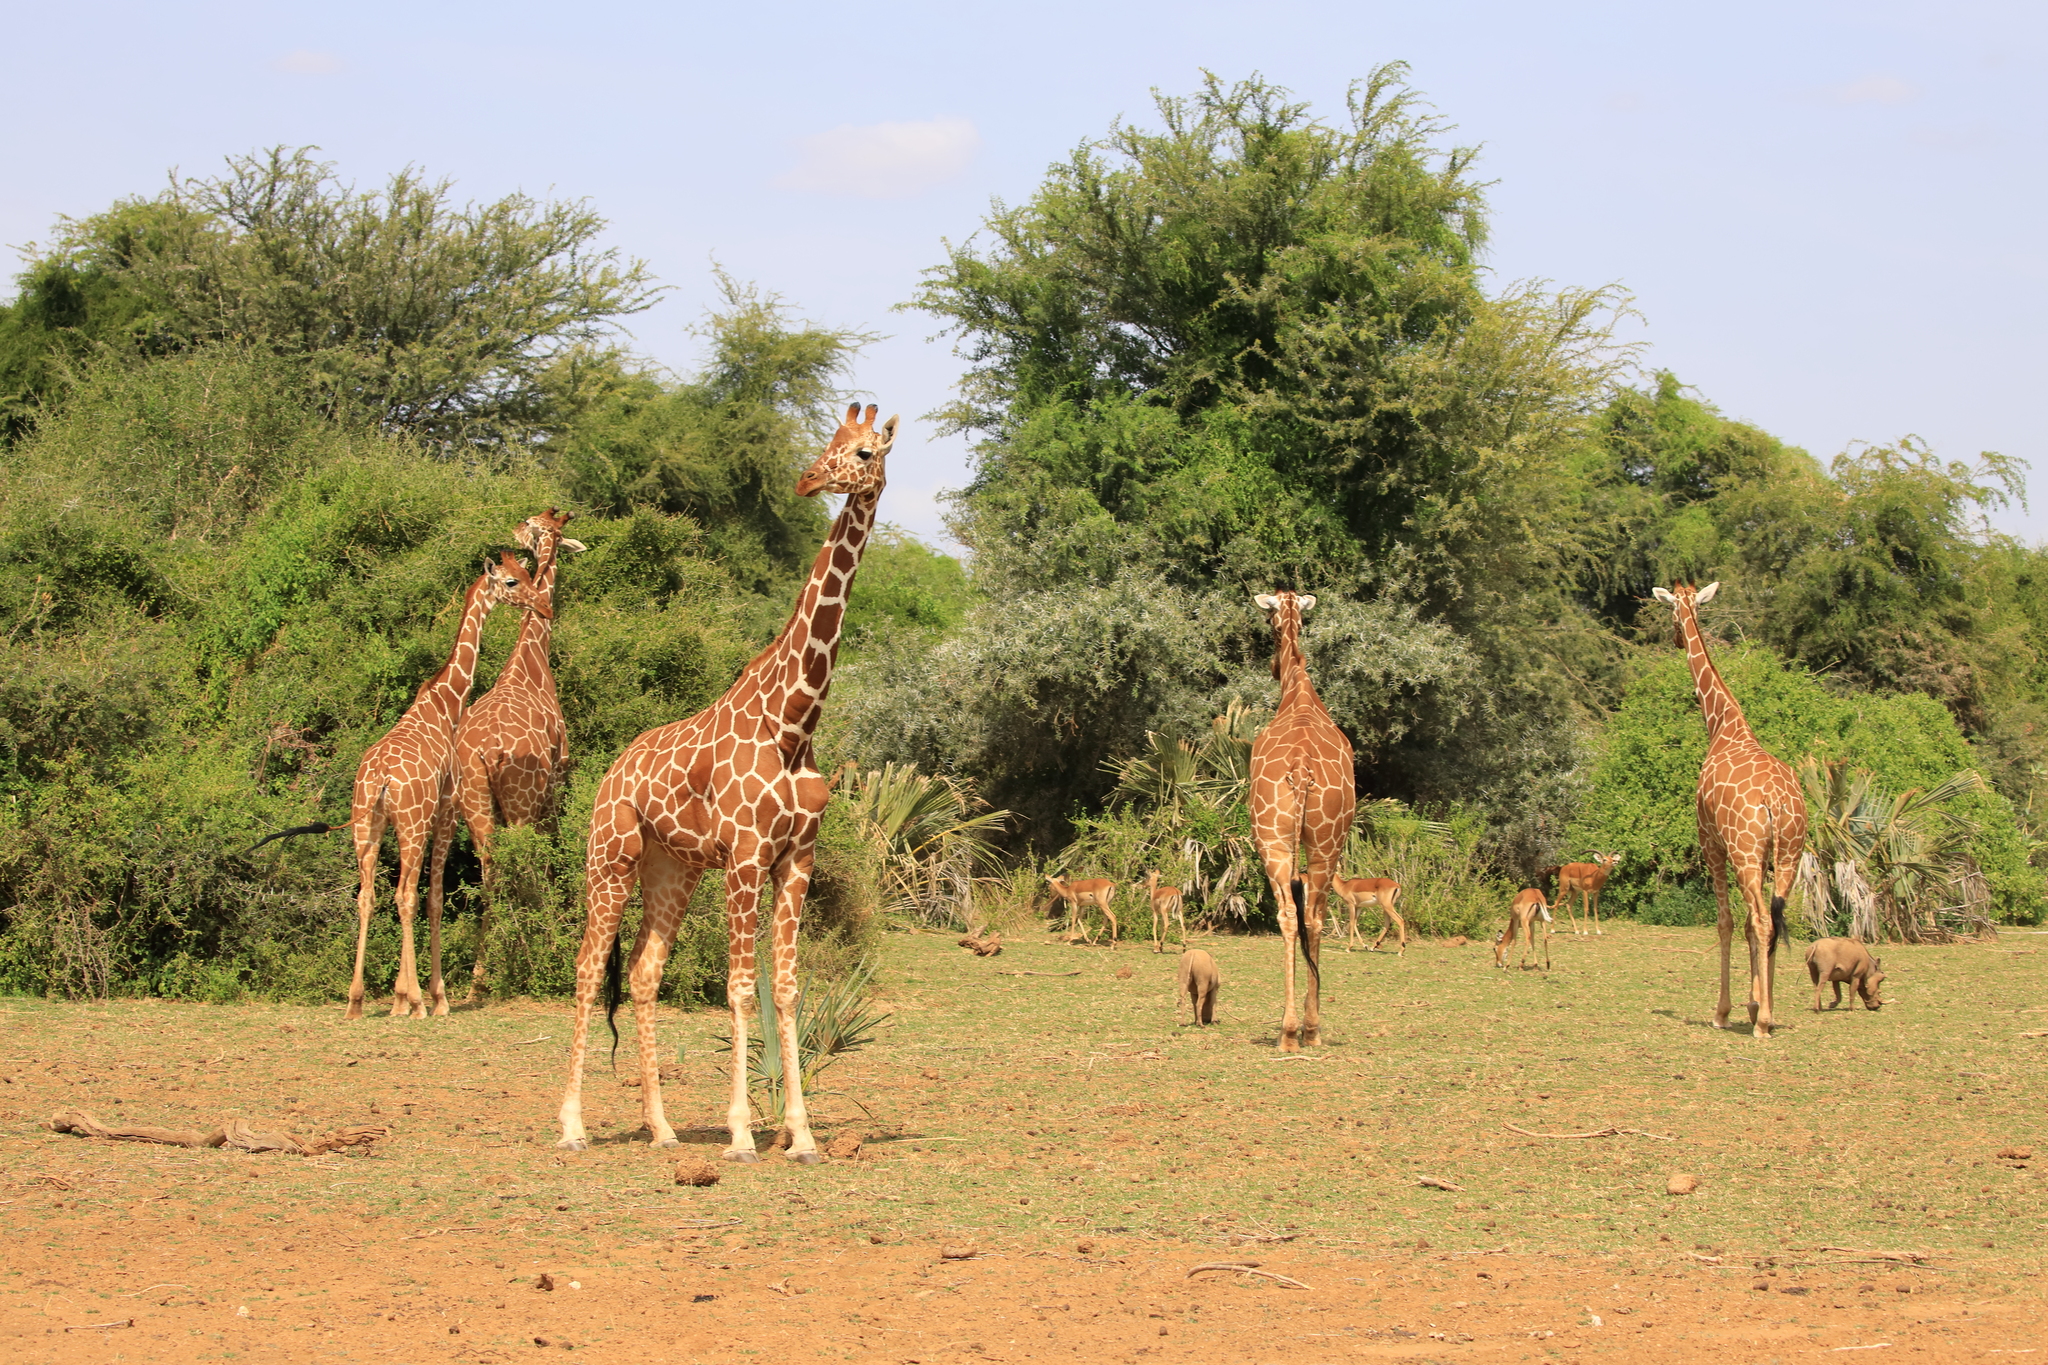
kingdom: Animalia
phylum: Chordata
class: Mammalia
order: Artiodactyla
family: Giraffidae
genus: Giraffa
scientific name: Giraffa reticulata
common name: Reticulated giraffe
